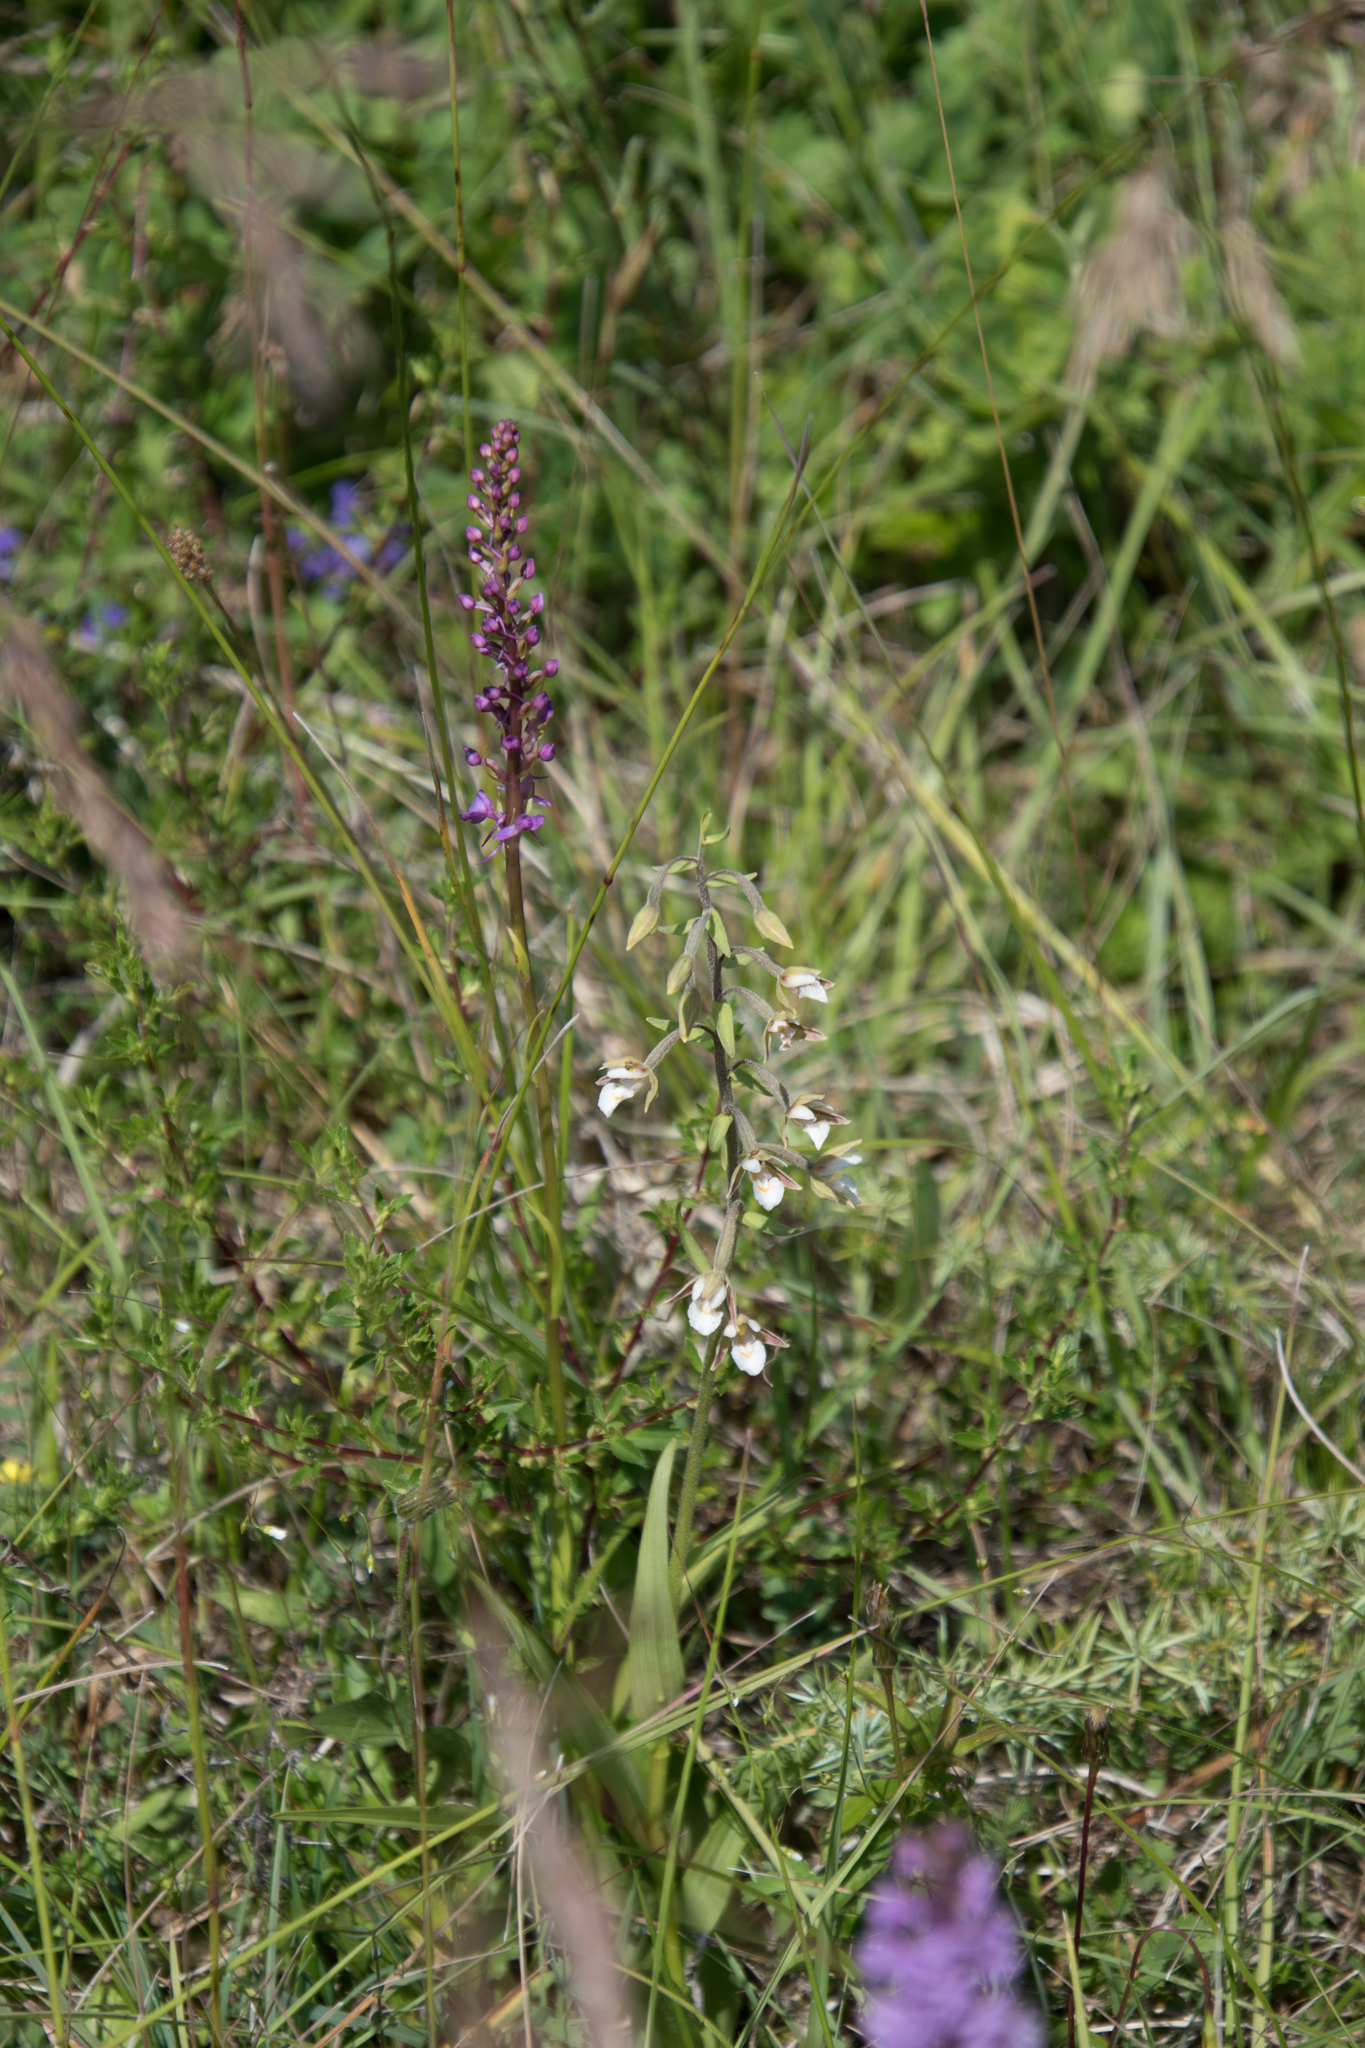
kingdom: Plantae
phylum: Tracheophyta
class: Liliopsida
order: Asparagales
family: Orchidaceae
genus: Epipactis
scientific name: Epipactis palustris
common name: Marsh helleborine
